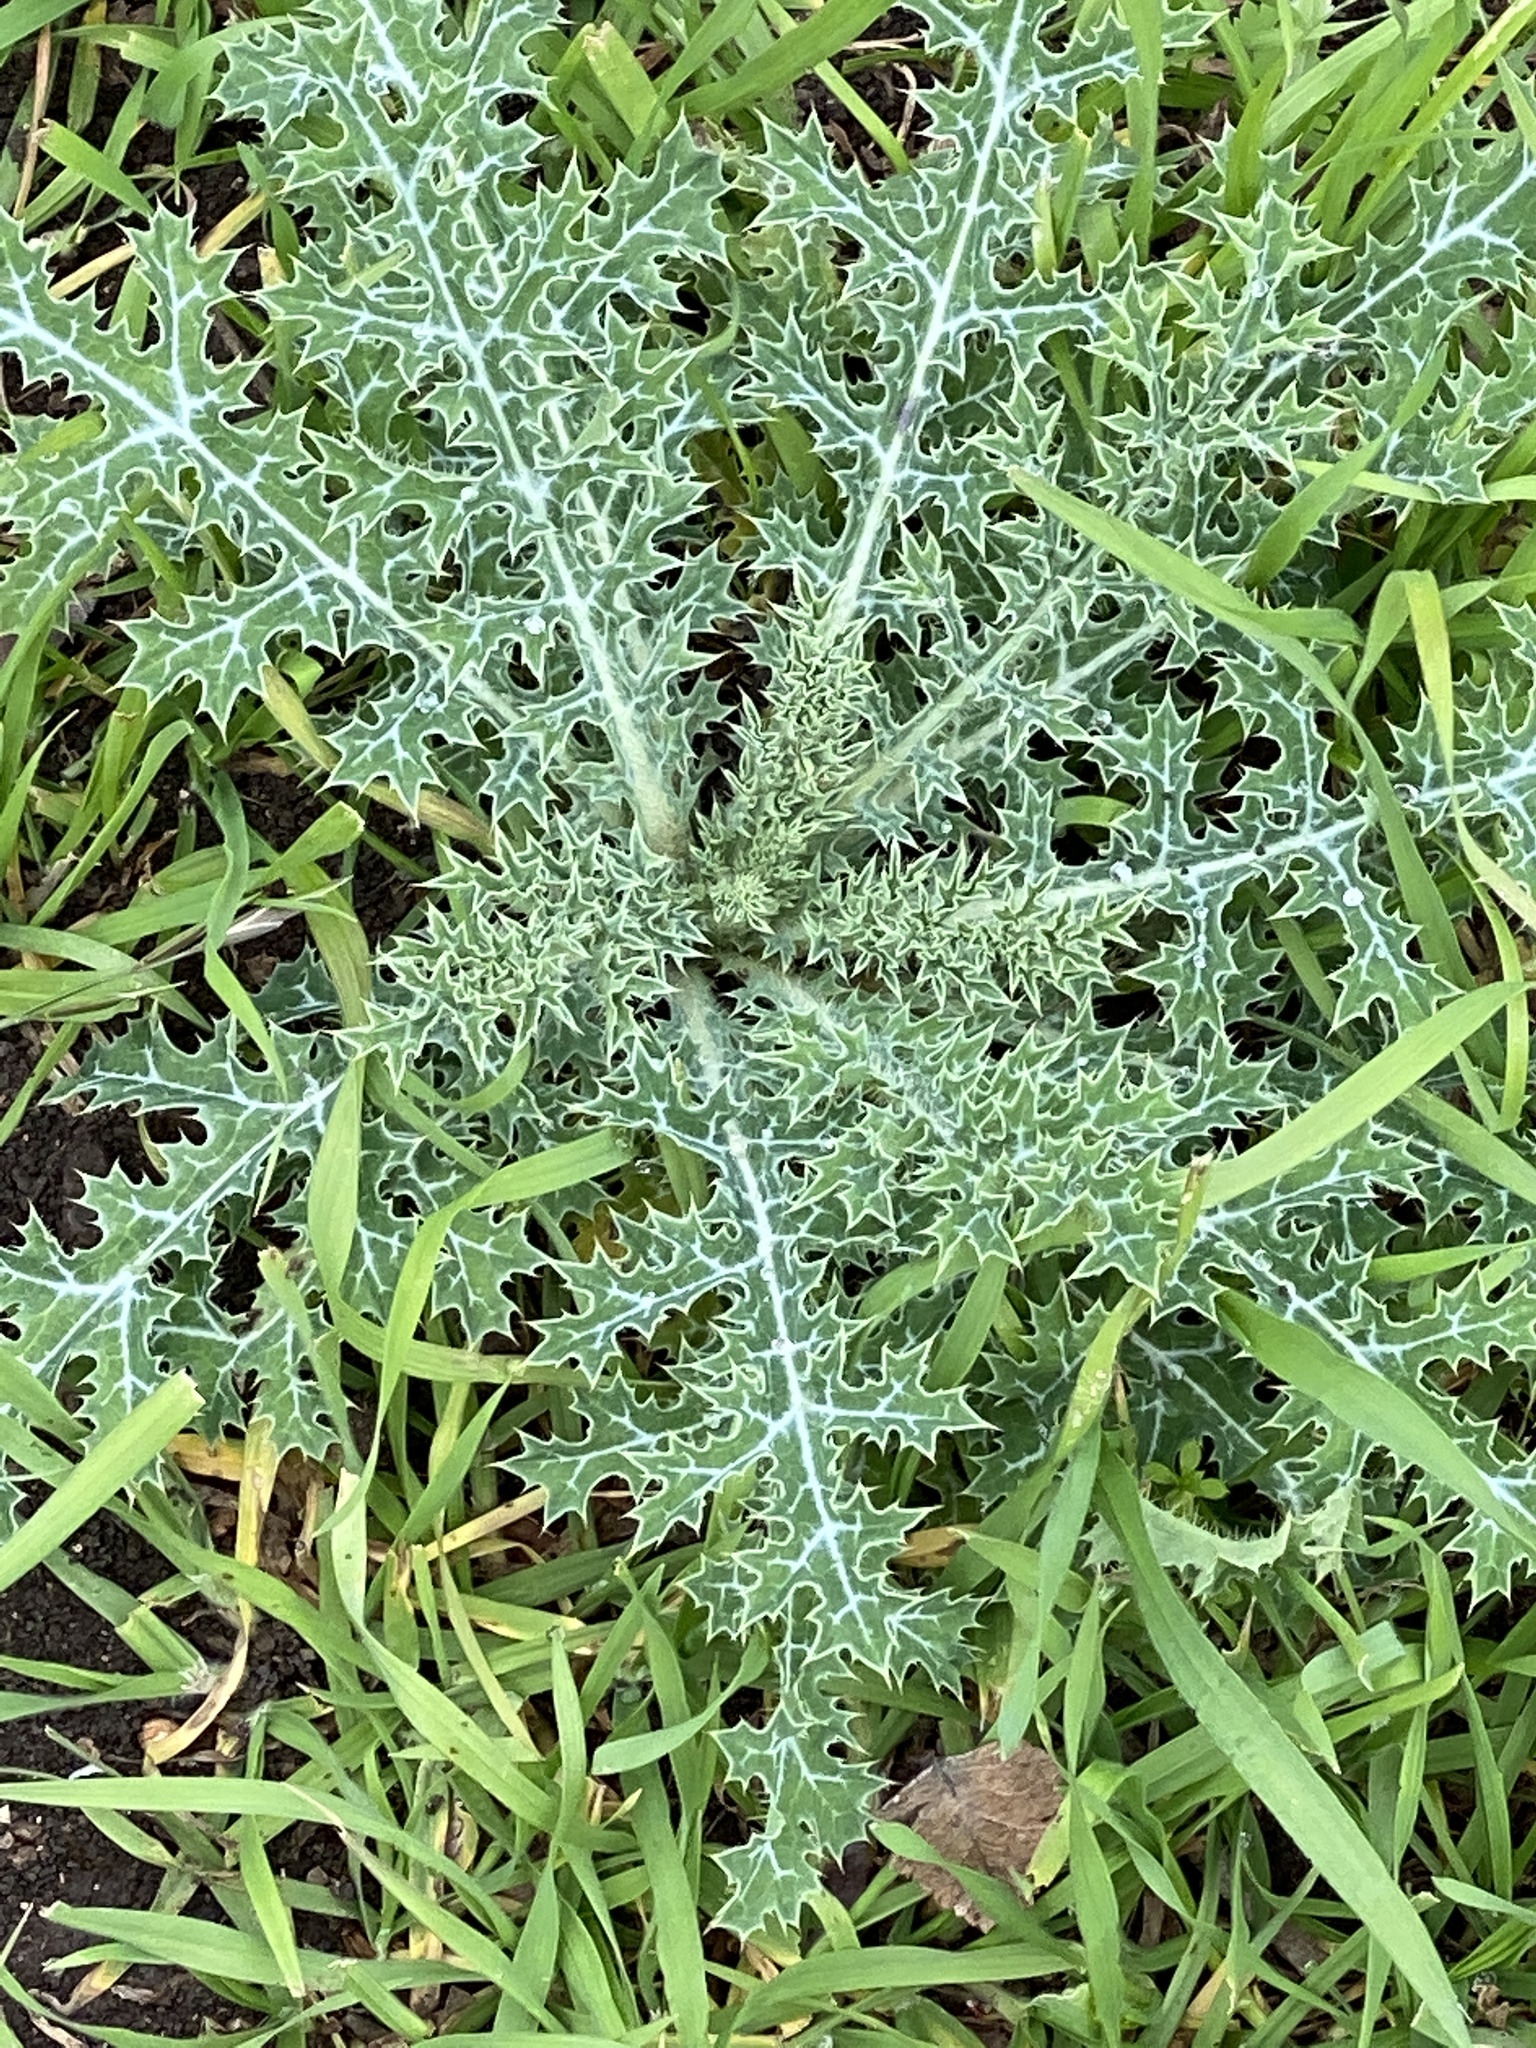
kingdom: Plantae
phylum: Tracheophyta
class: Magnoliopsida
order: Ranunculales
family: Papaveraceae
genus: Argemone
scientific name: Argemone albiflora
